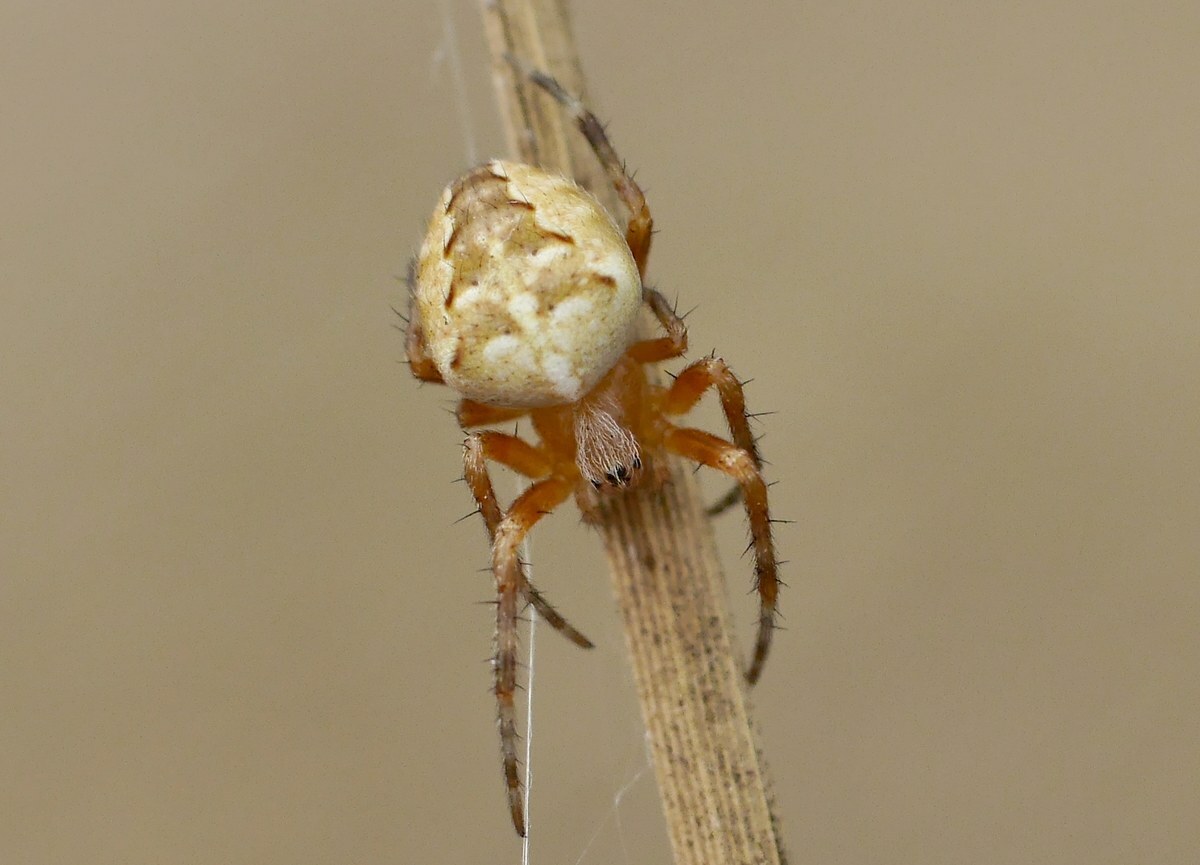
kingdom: Animalia
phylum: Arthropoda
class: Arachnida
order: Araneae
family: Araneidae
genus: Araneus
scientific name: Araneus diadematus
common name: Cross orbweaver
